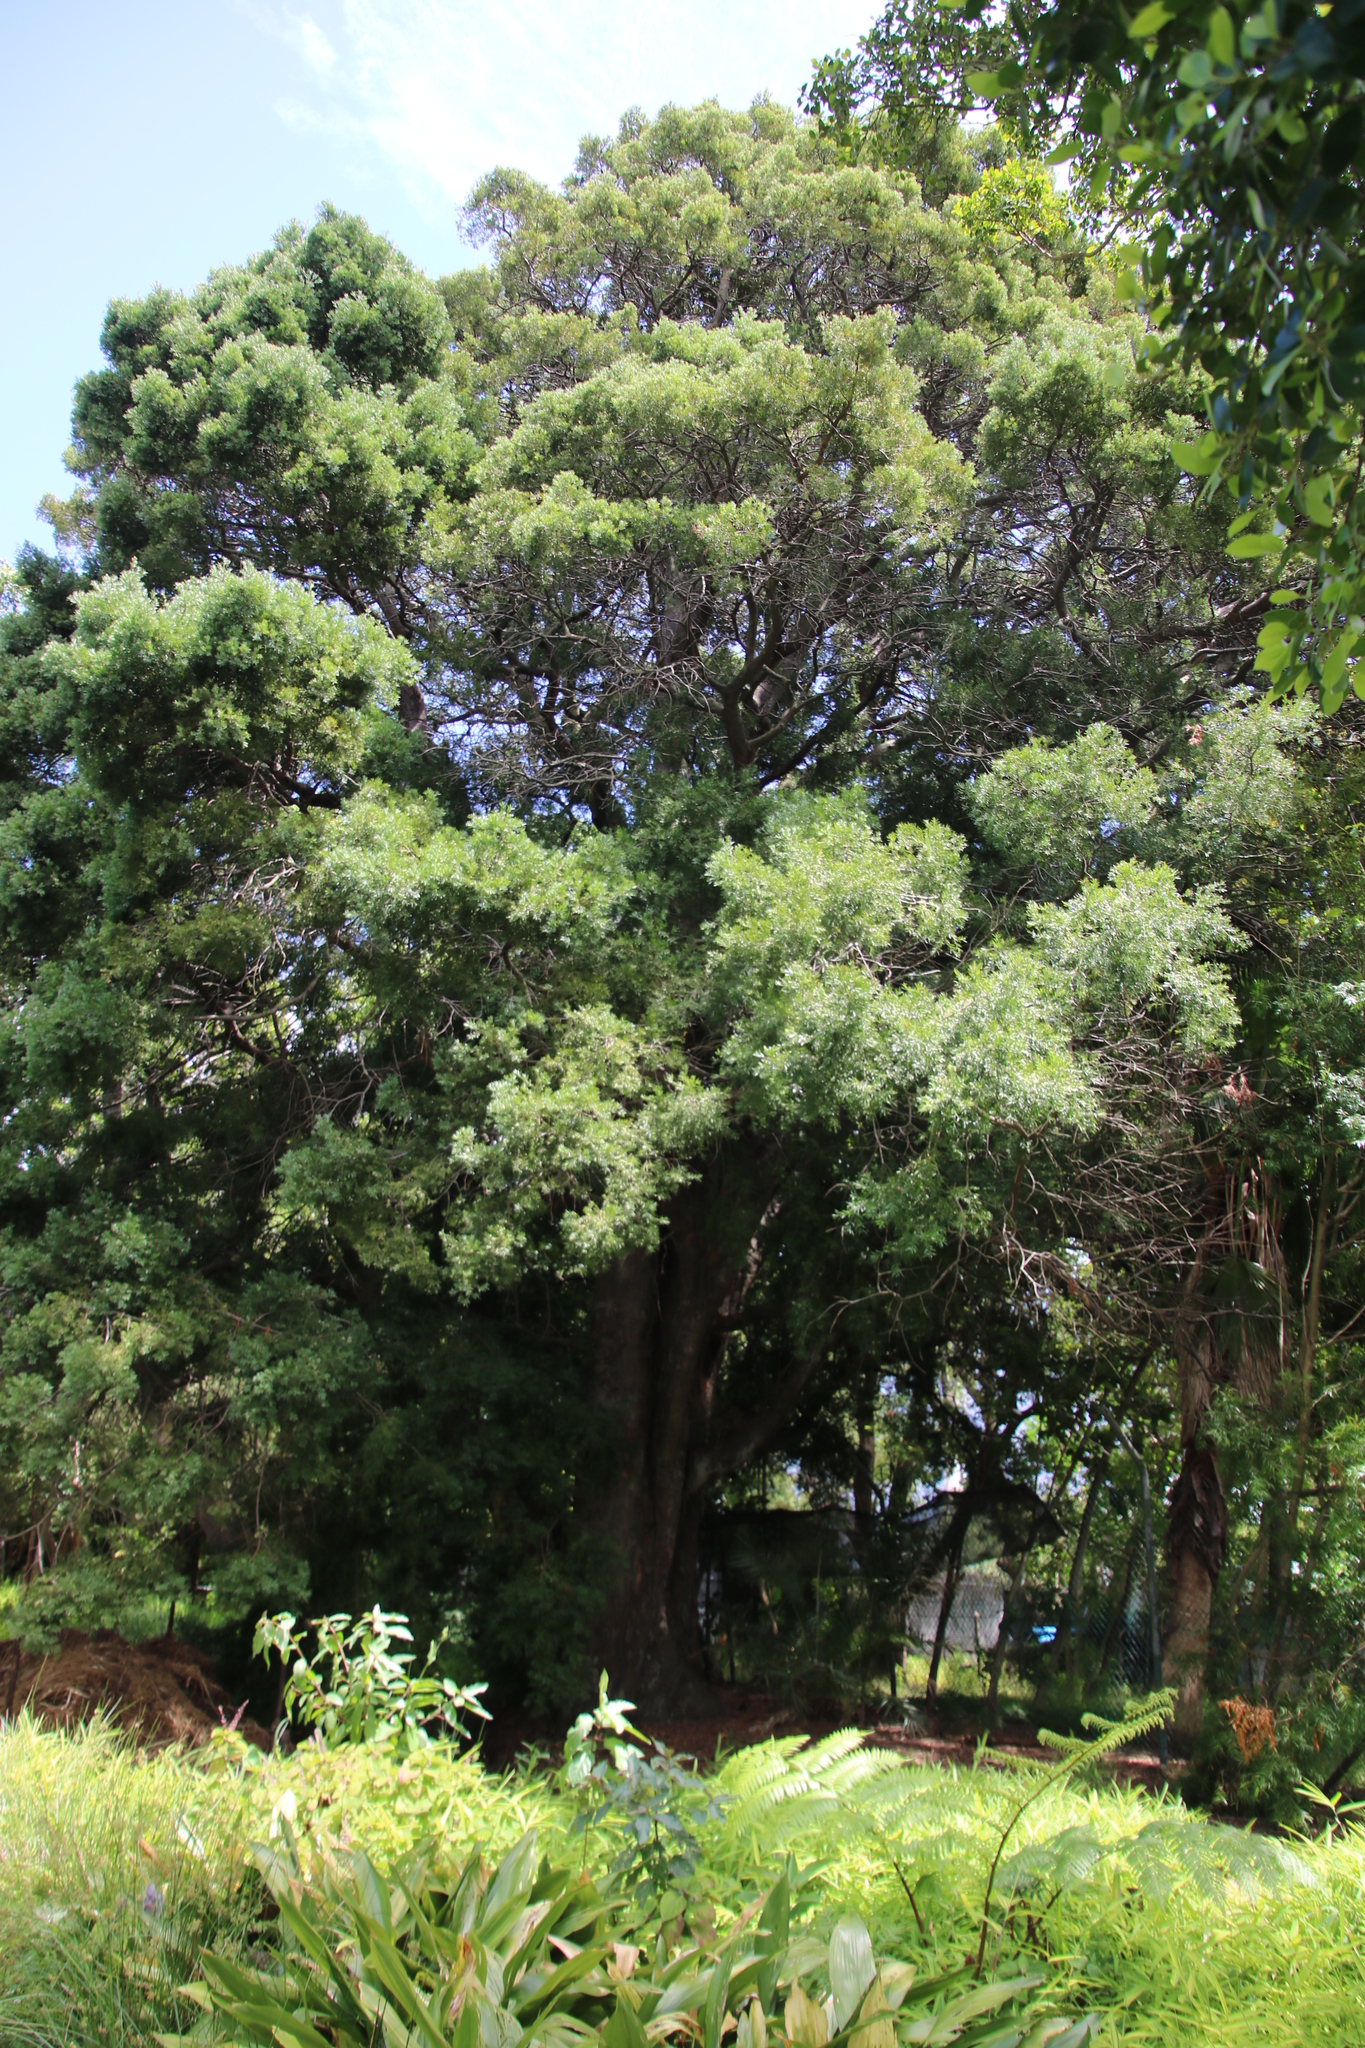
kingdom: Plantae
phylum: Tracheophyta
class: Pinopsida
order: Pinales
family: Podocarpaceae
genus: Afrocarpus
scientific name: Afrocarpus falcatus
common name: Bastard yellowwood
